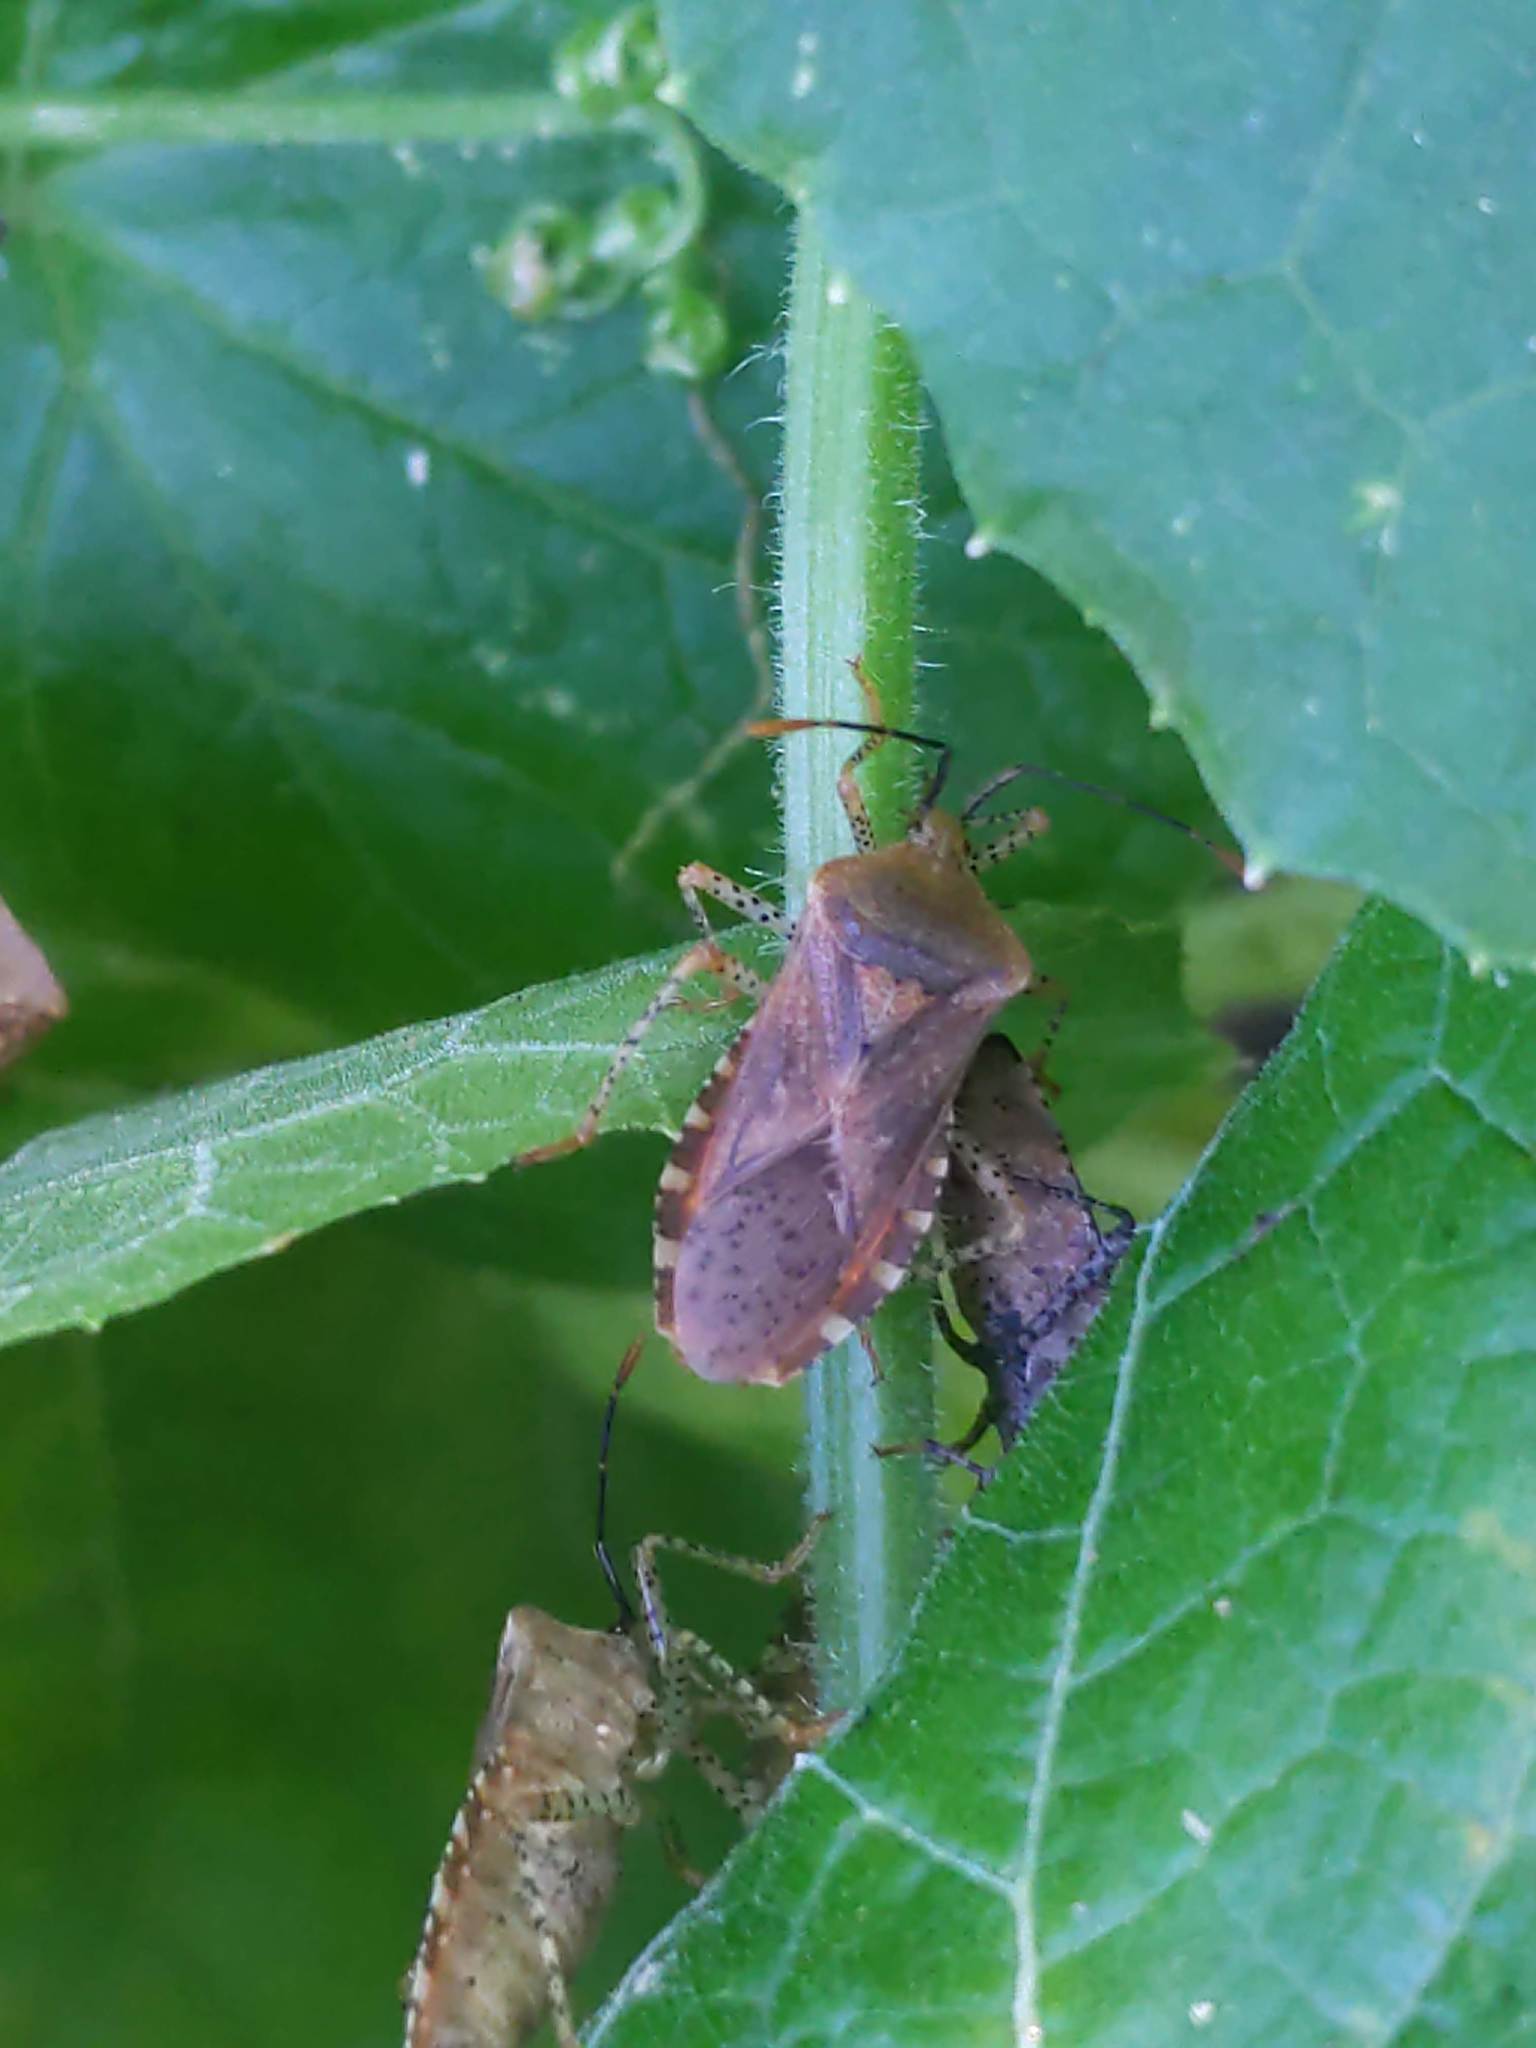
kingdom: Animalia
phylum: Arthropoda
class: Insecta
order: Hemiptera
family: Coreidae
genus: Anasa
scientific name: Anasa repetita
